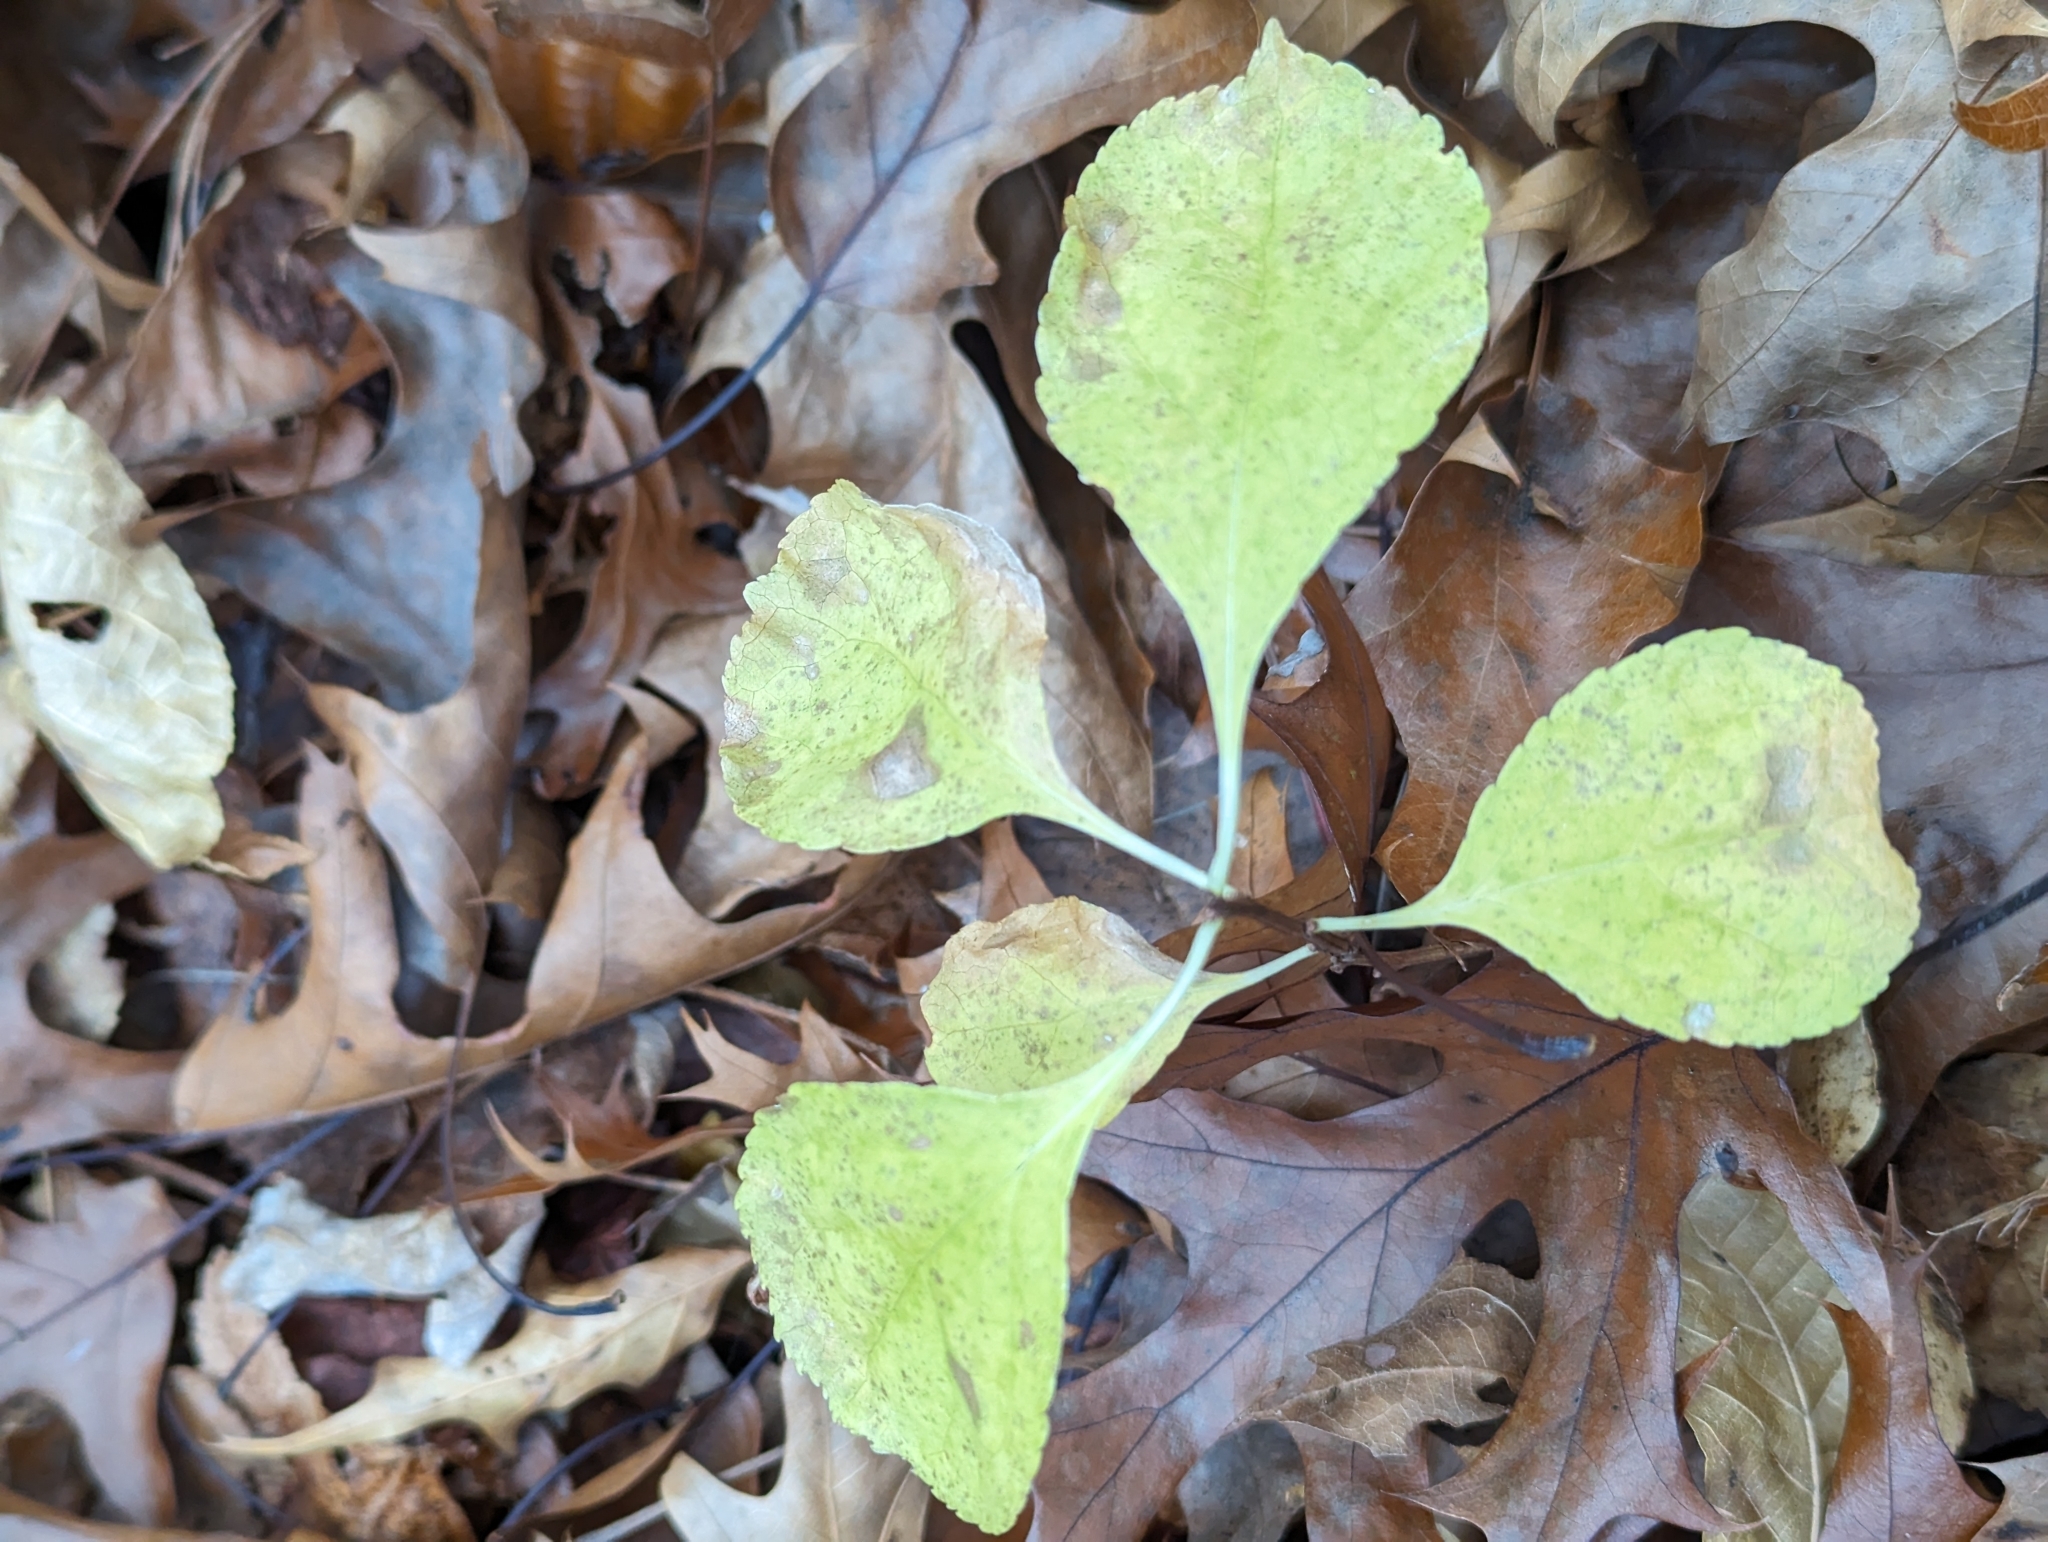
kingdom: Plantae
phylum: Tracheophyta
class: Magnoliopsida
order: Celastrales
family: Celastraceae
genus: Celastrus
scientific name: Celastrus orbiculatus
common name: Oriental bittersweet
